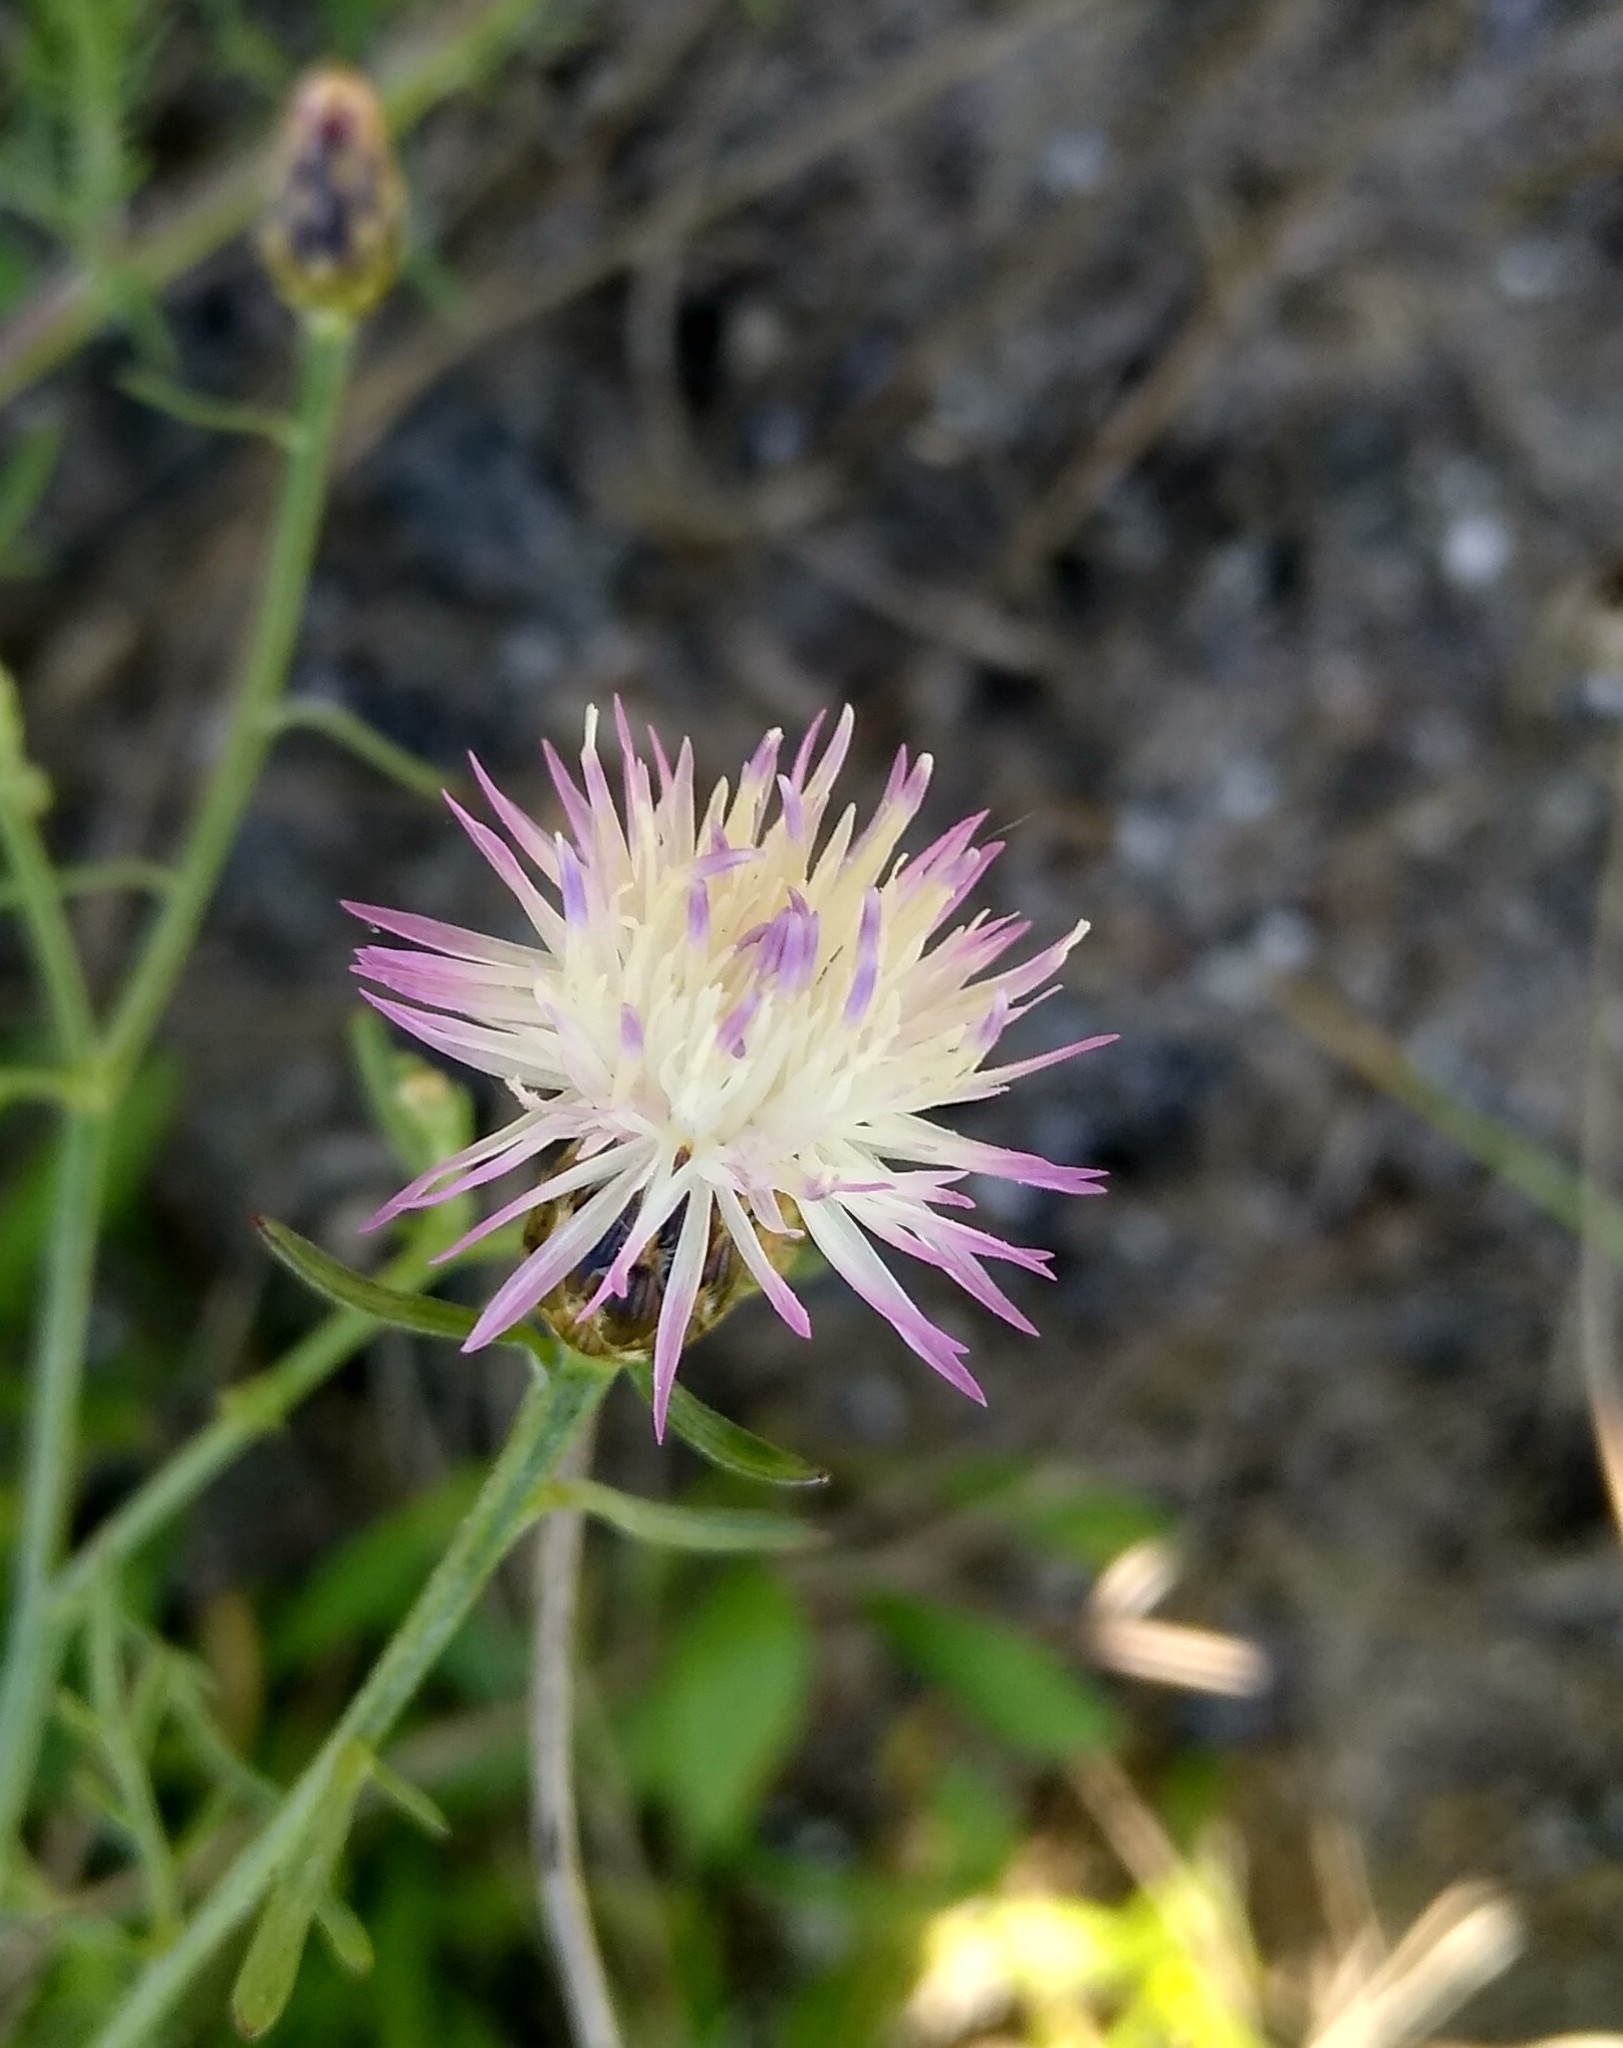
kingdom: Plantae
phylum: Tracheophyta
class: Magnoliopsida
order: Asterales
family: Asteraceae
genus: Centaurea
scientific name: Centaurea odessana
